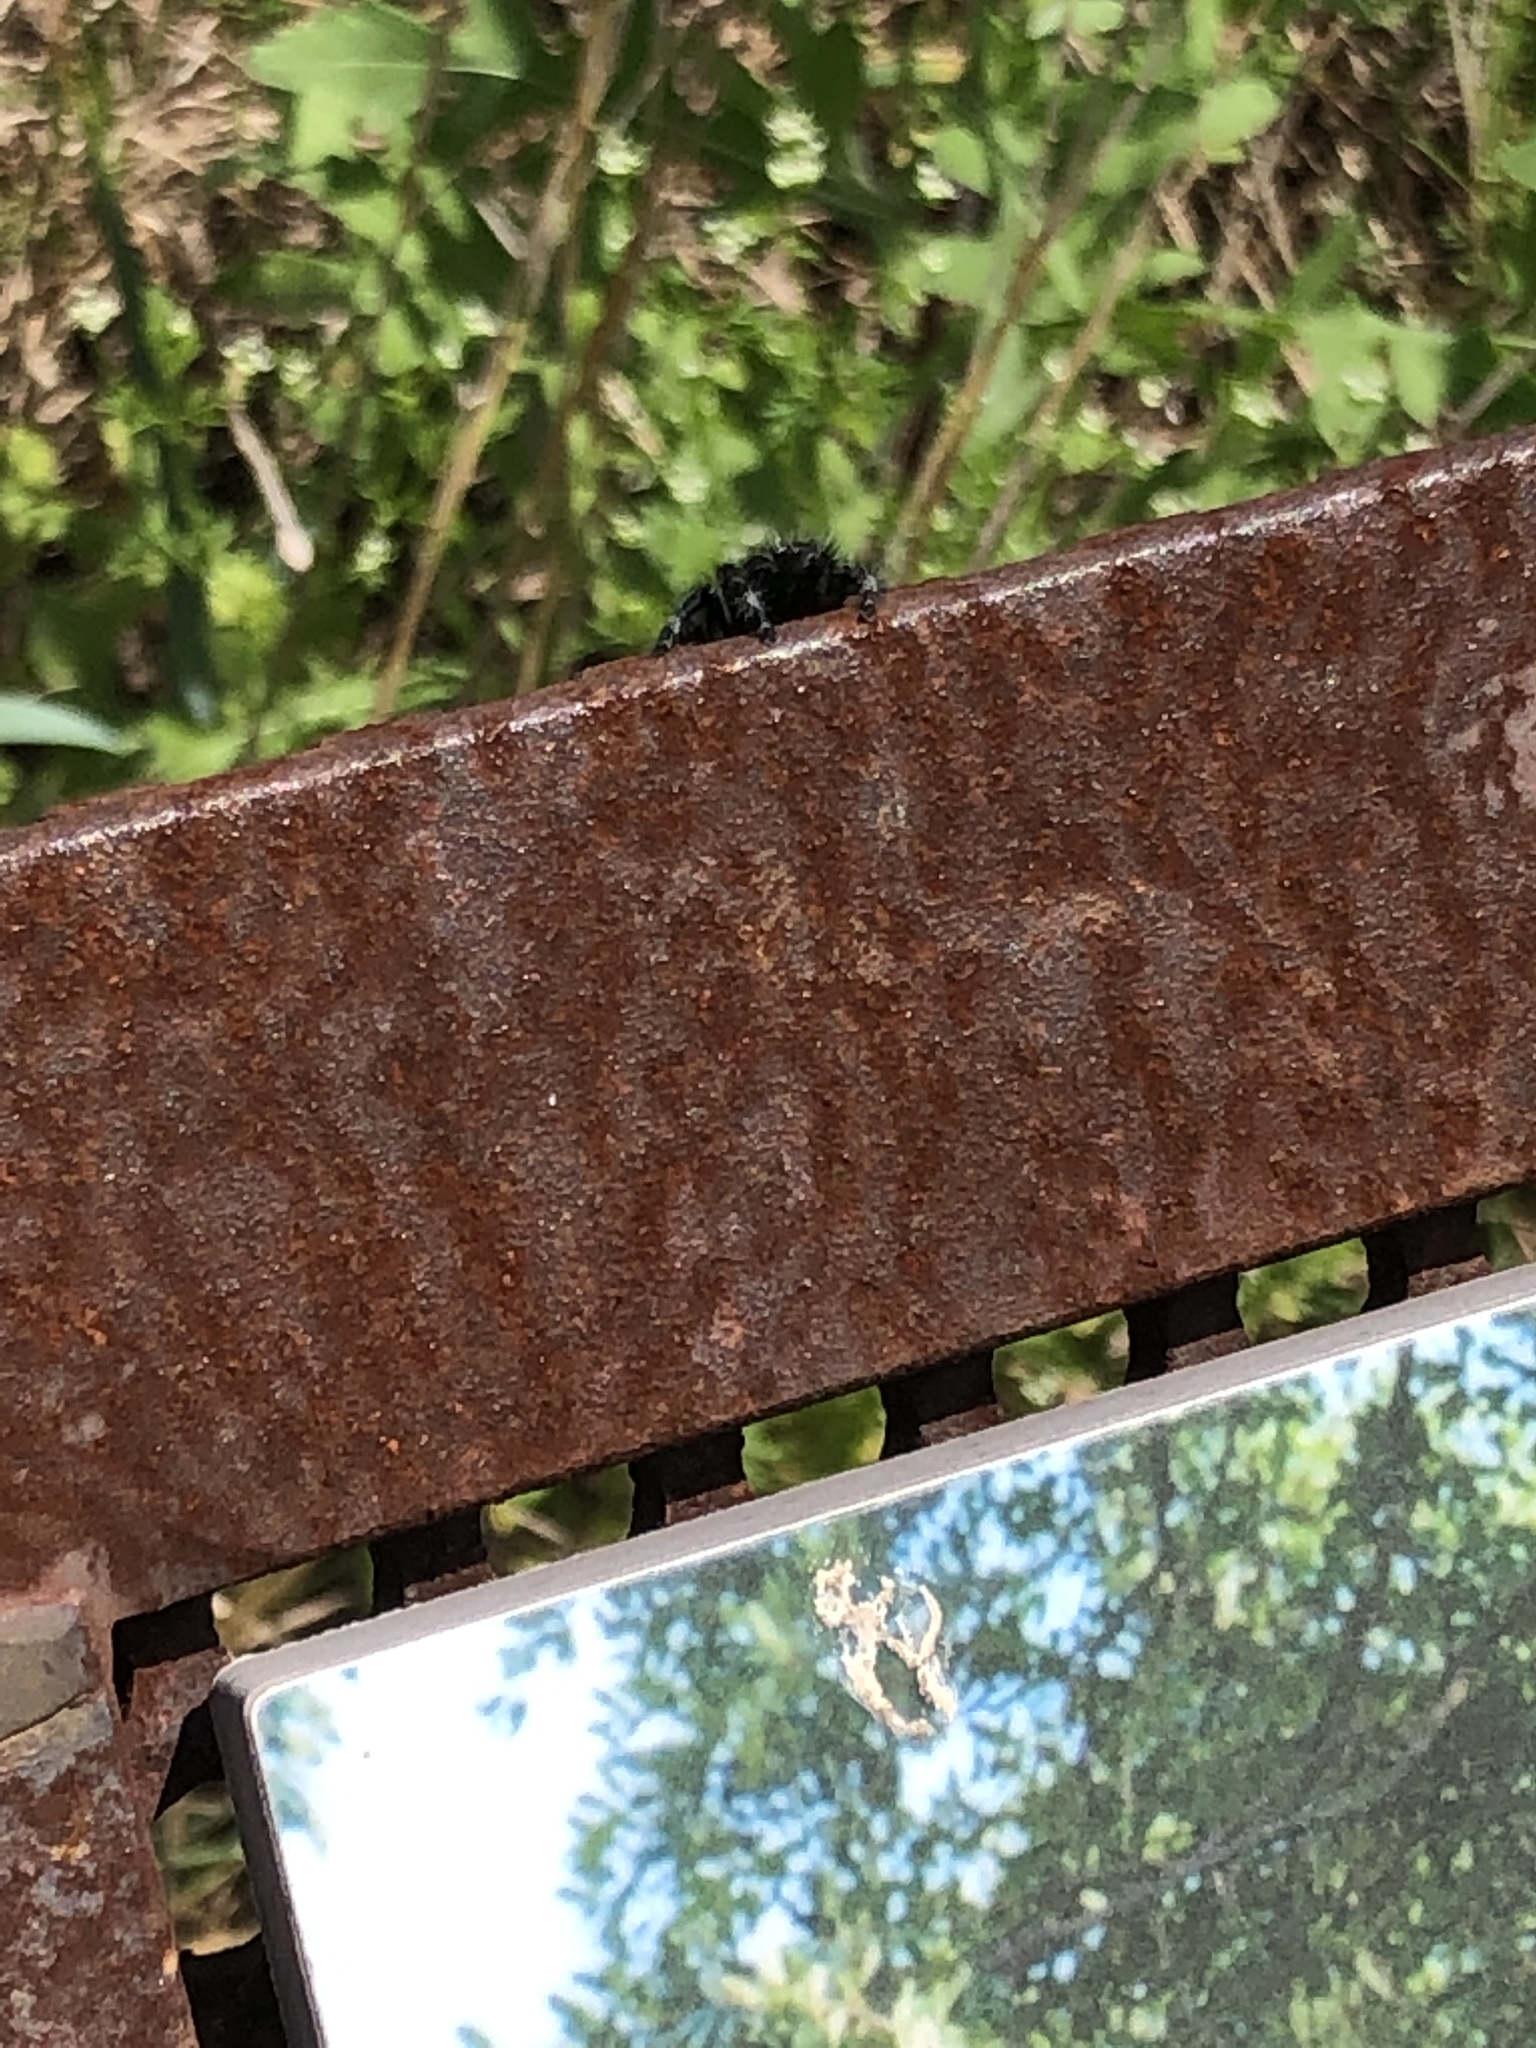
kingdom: Animalia
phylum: Arthropoda
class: Arachnida
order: Araneae
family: Salticidae
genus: Phidippus
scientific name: Phidippus audax
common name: Bold jumper
